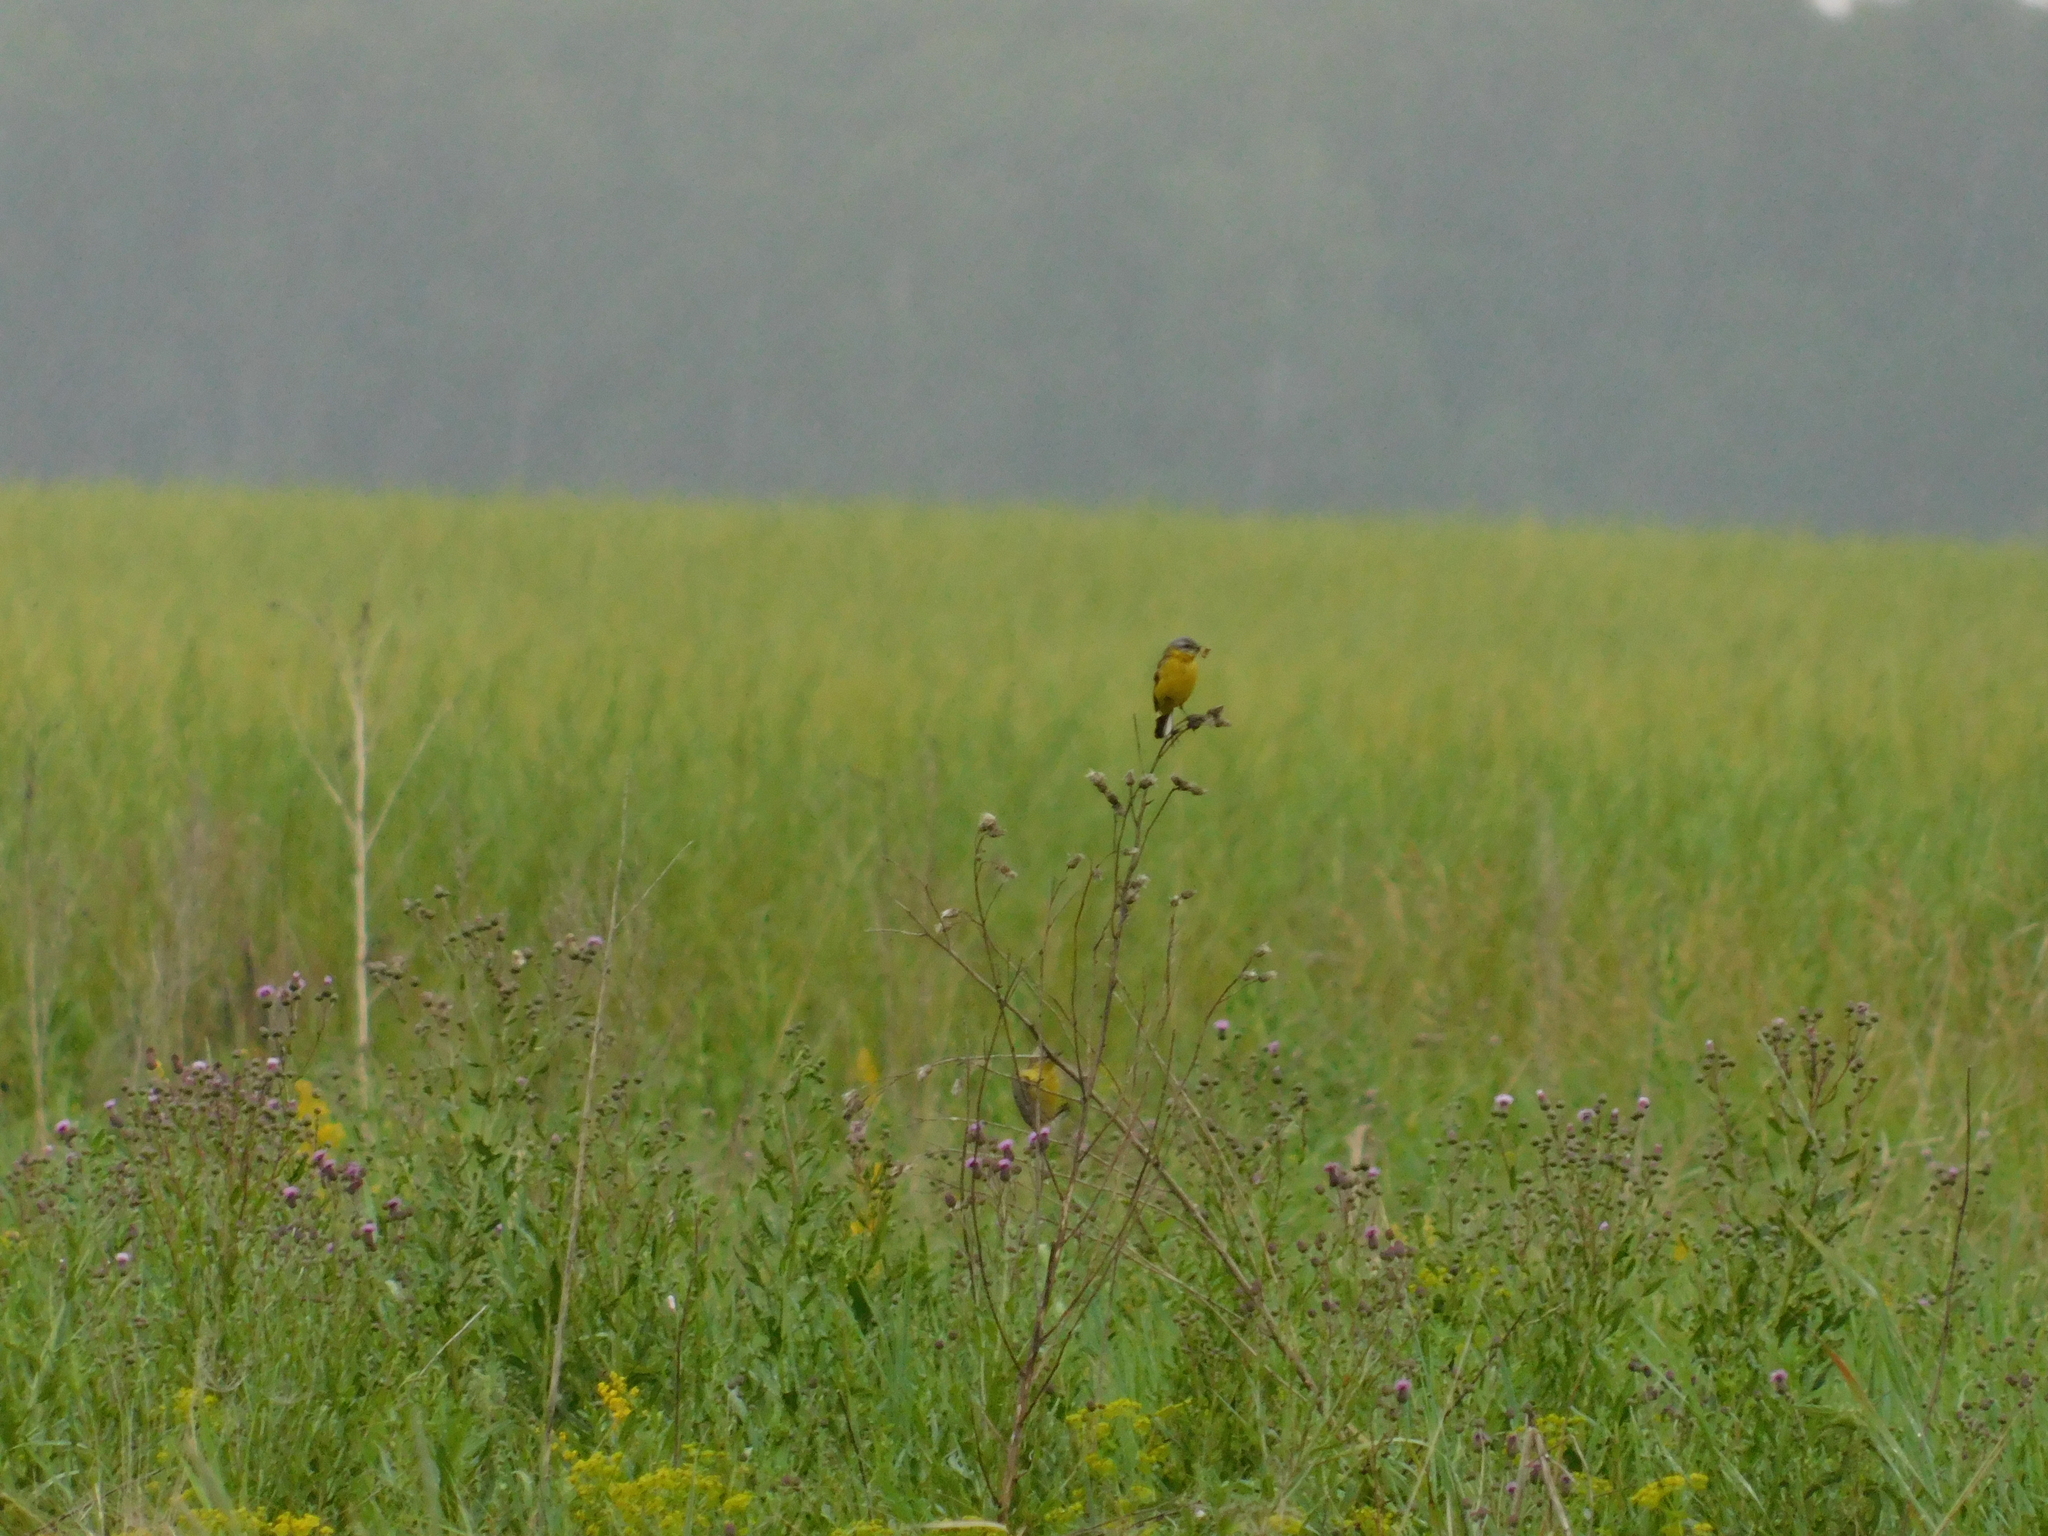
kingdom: Animalia
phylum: Chordata
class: Aves
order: Passeriformes
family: Motacillidae
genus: Motacilla
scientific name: Motacilla flava
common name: Western yellow wagtail
